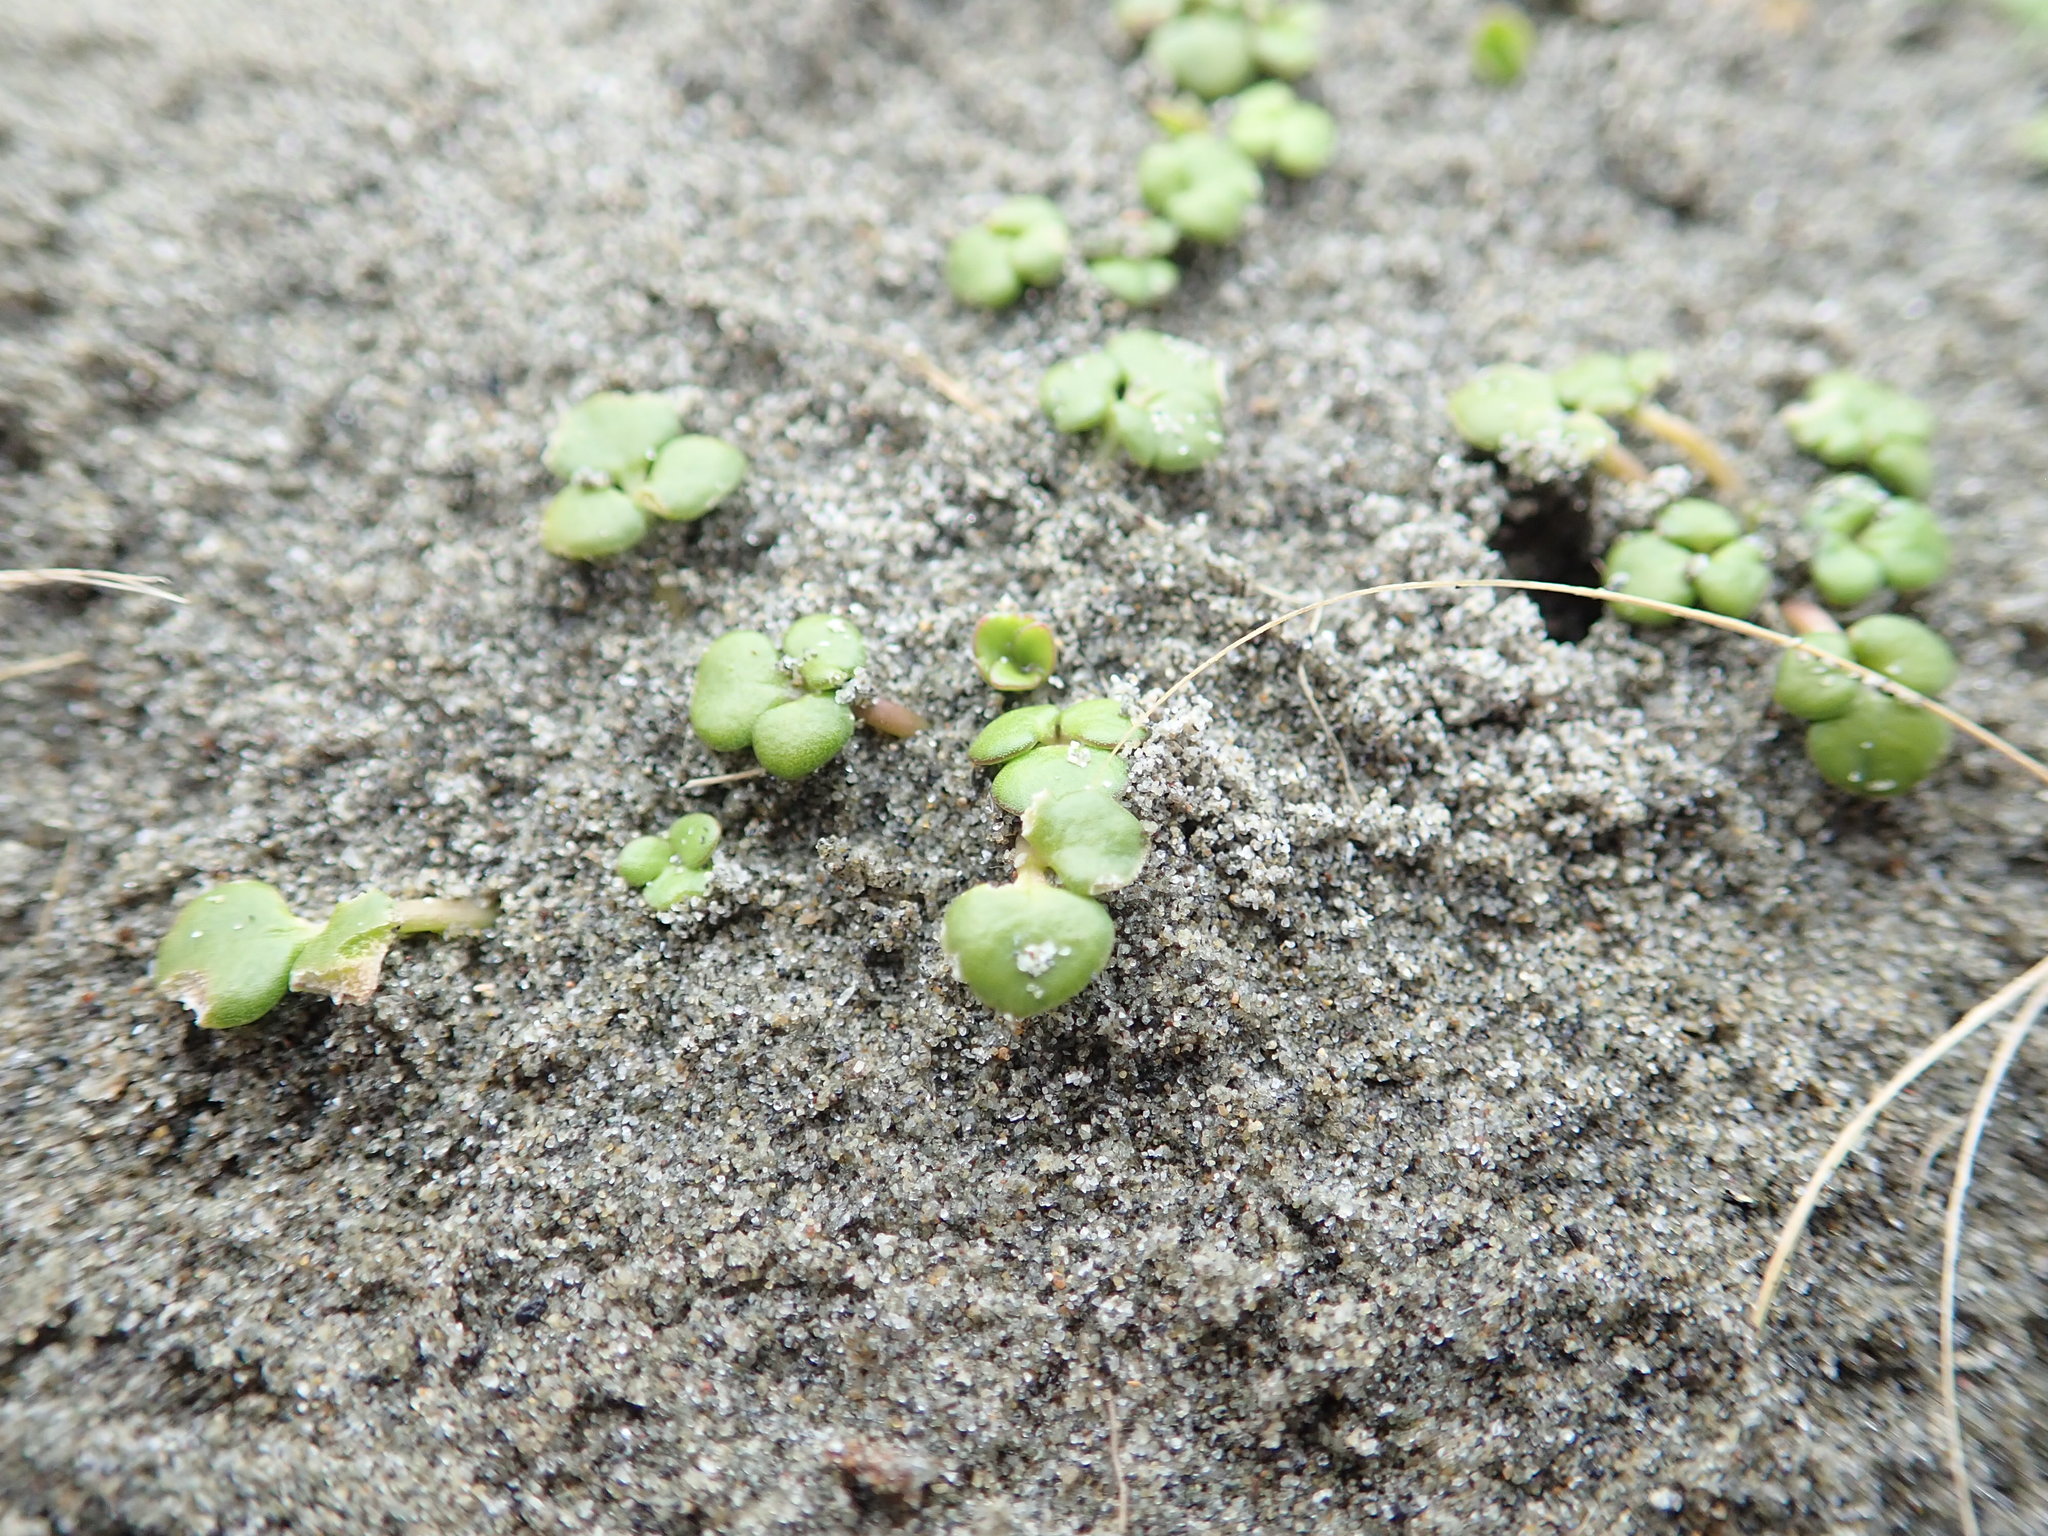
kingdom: Plantae
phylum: Tracheophyta
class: Magnoliopsida
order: Ranunculales
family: Ranunculaceae
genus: Ranunculus
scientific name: Ranunculus acaulis
